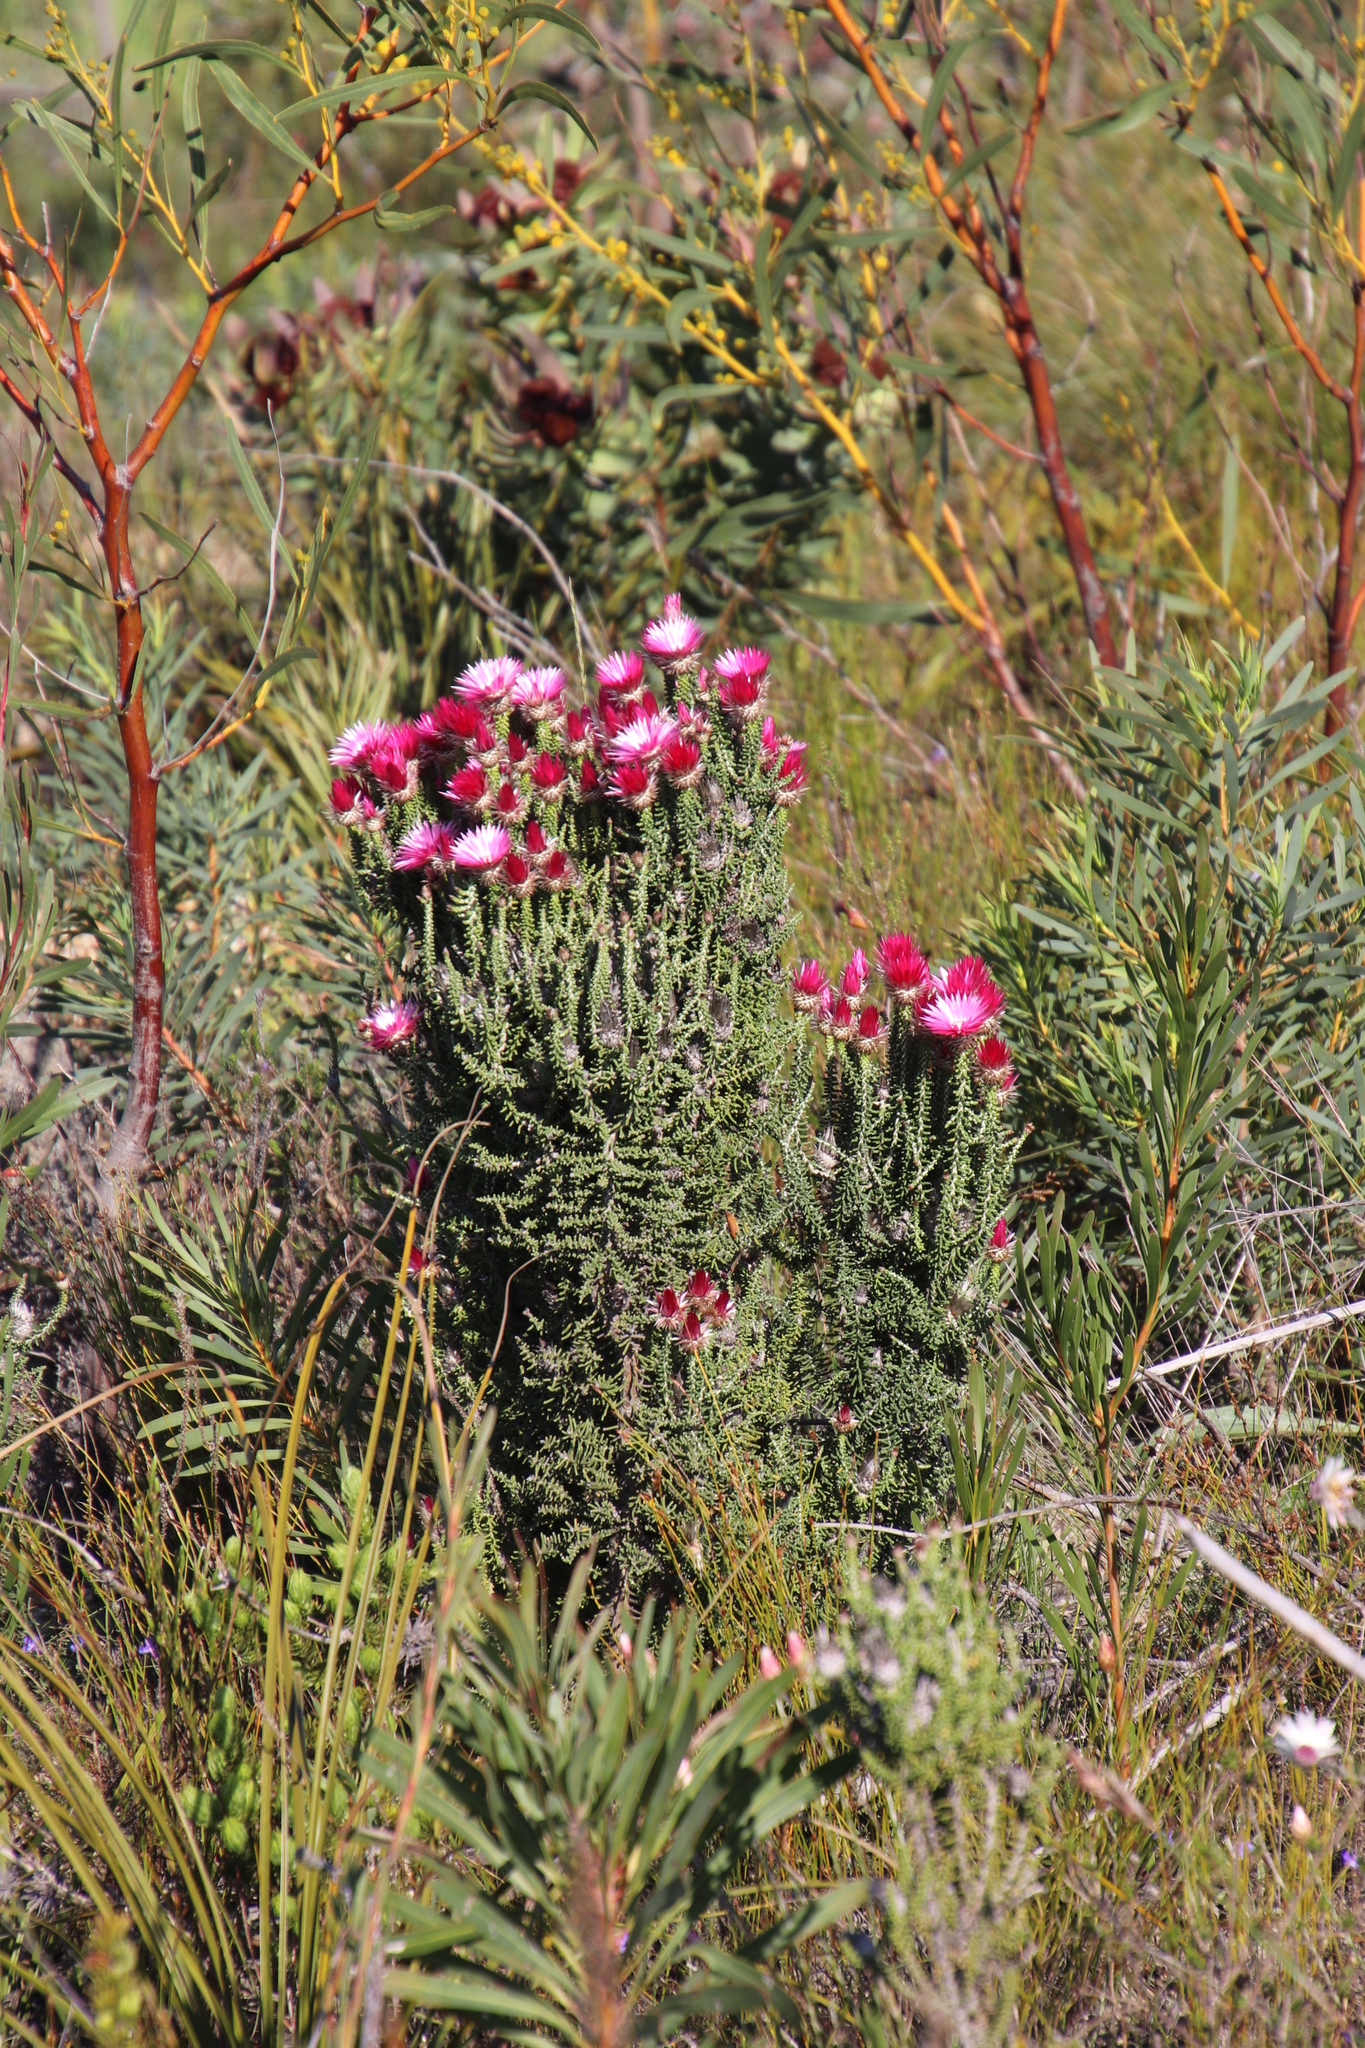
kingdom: Plantae
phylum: Tracheophyta
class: Magnoliopsida
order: Asterales
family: Asteraceae
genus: Phaenocoma
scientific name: Phaenocoma prolifera
